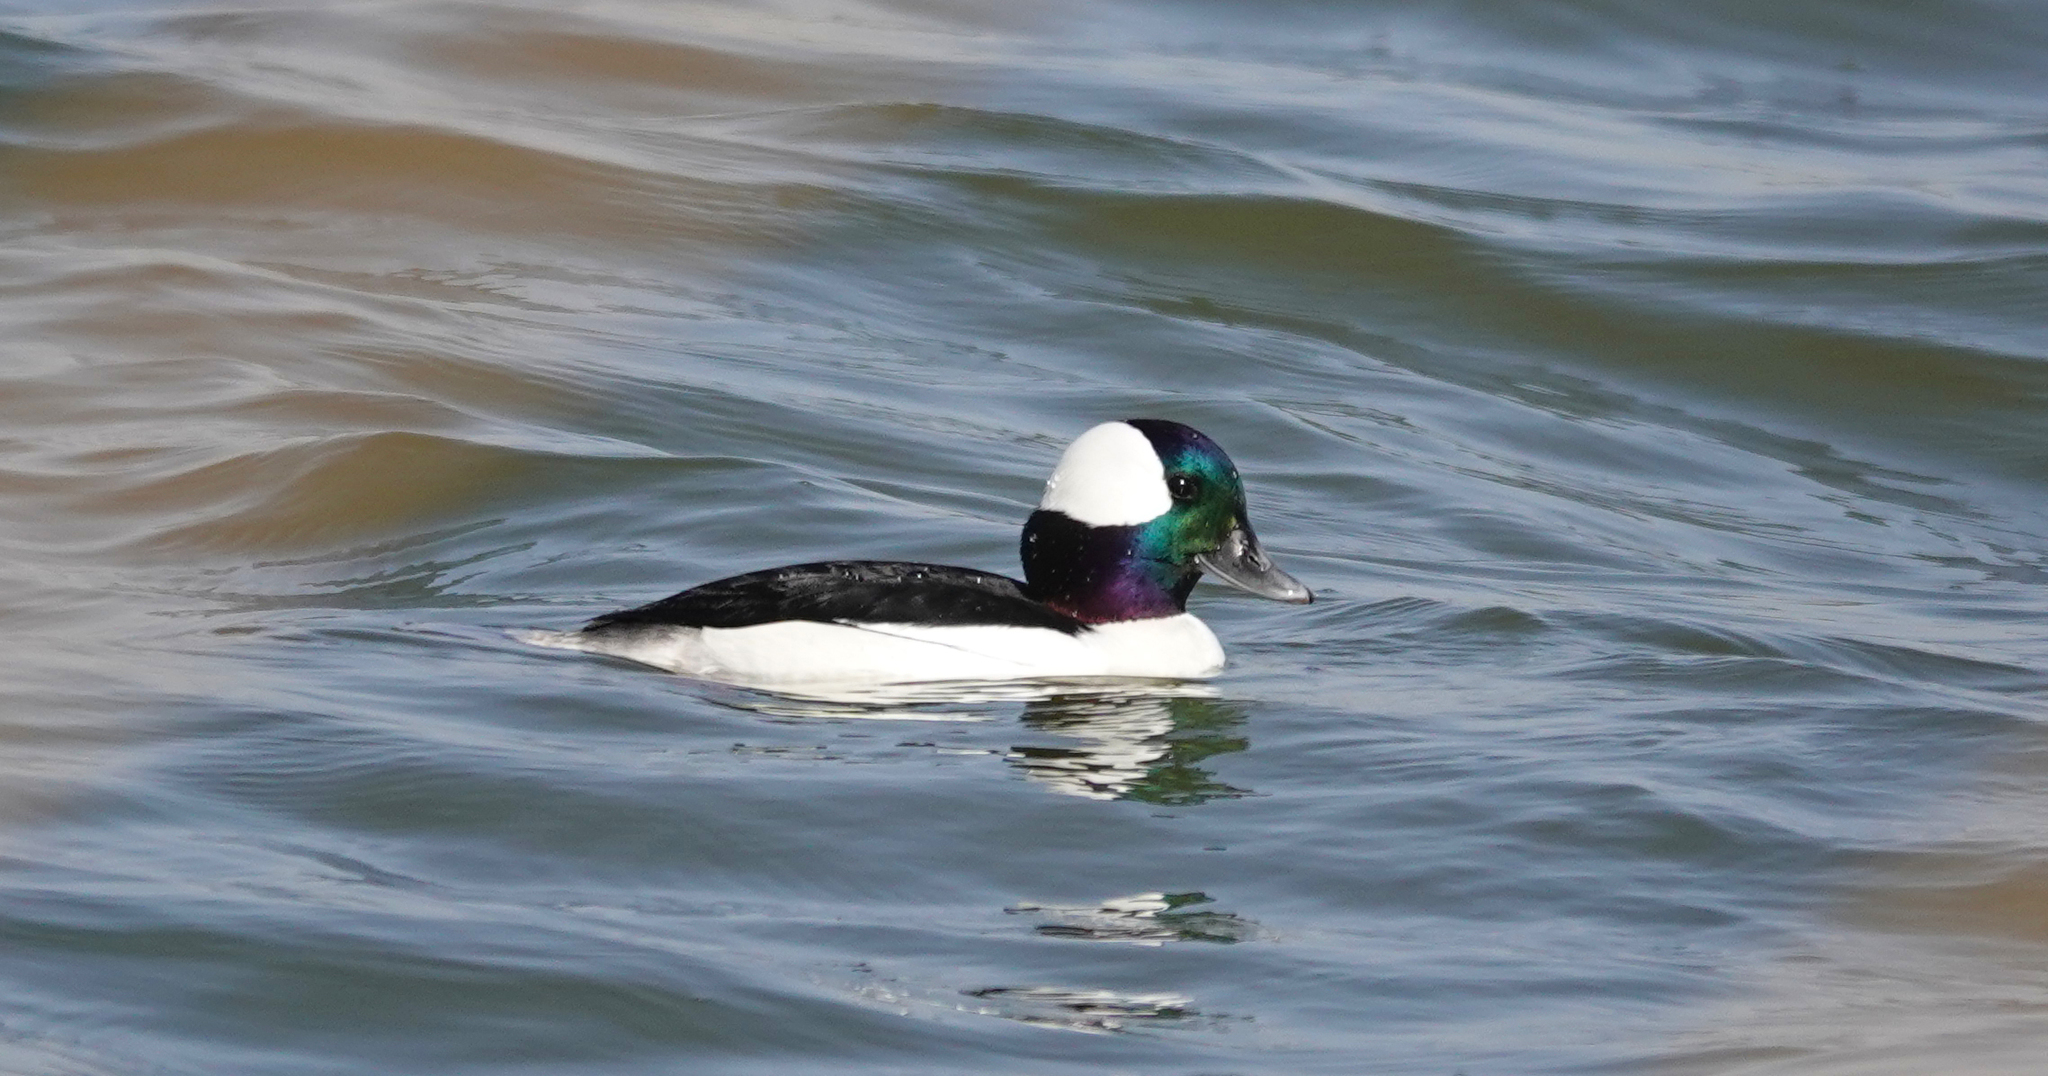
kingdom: Animalia
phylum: Chordata
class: Aves
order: Anseriformes
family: Anatidae
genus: Bucephala
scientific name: Bucephala albeola
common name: Bufflehead
